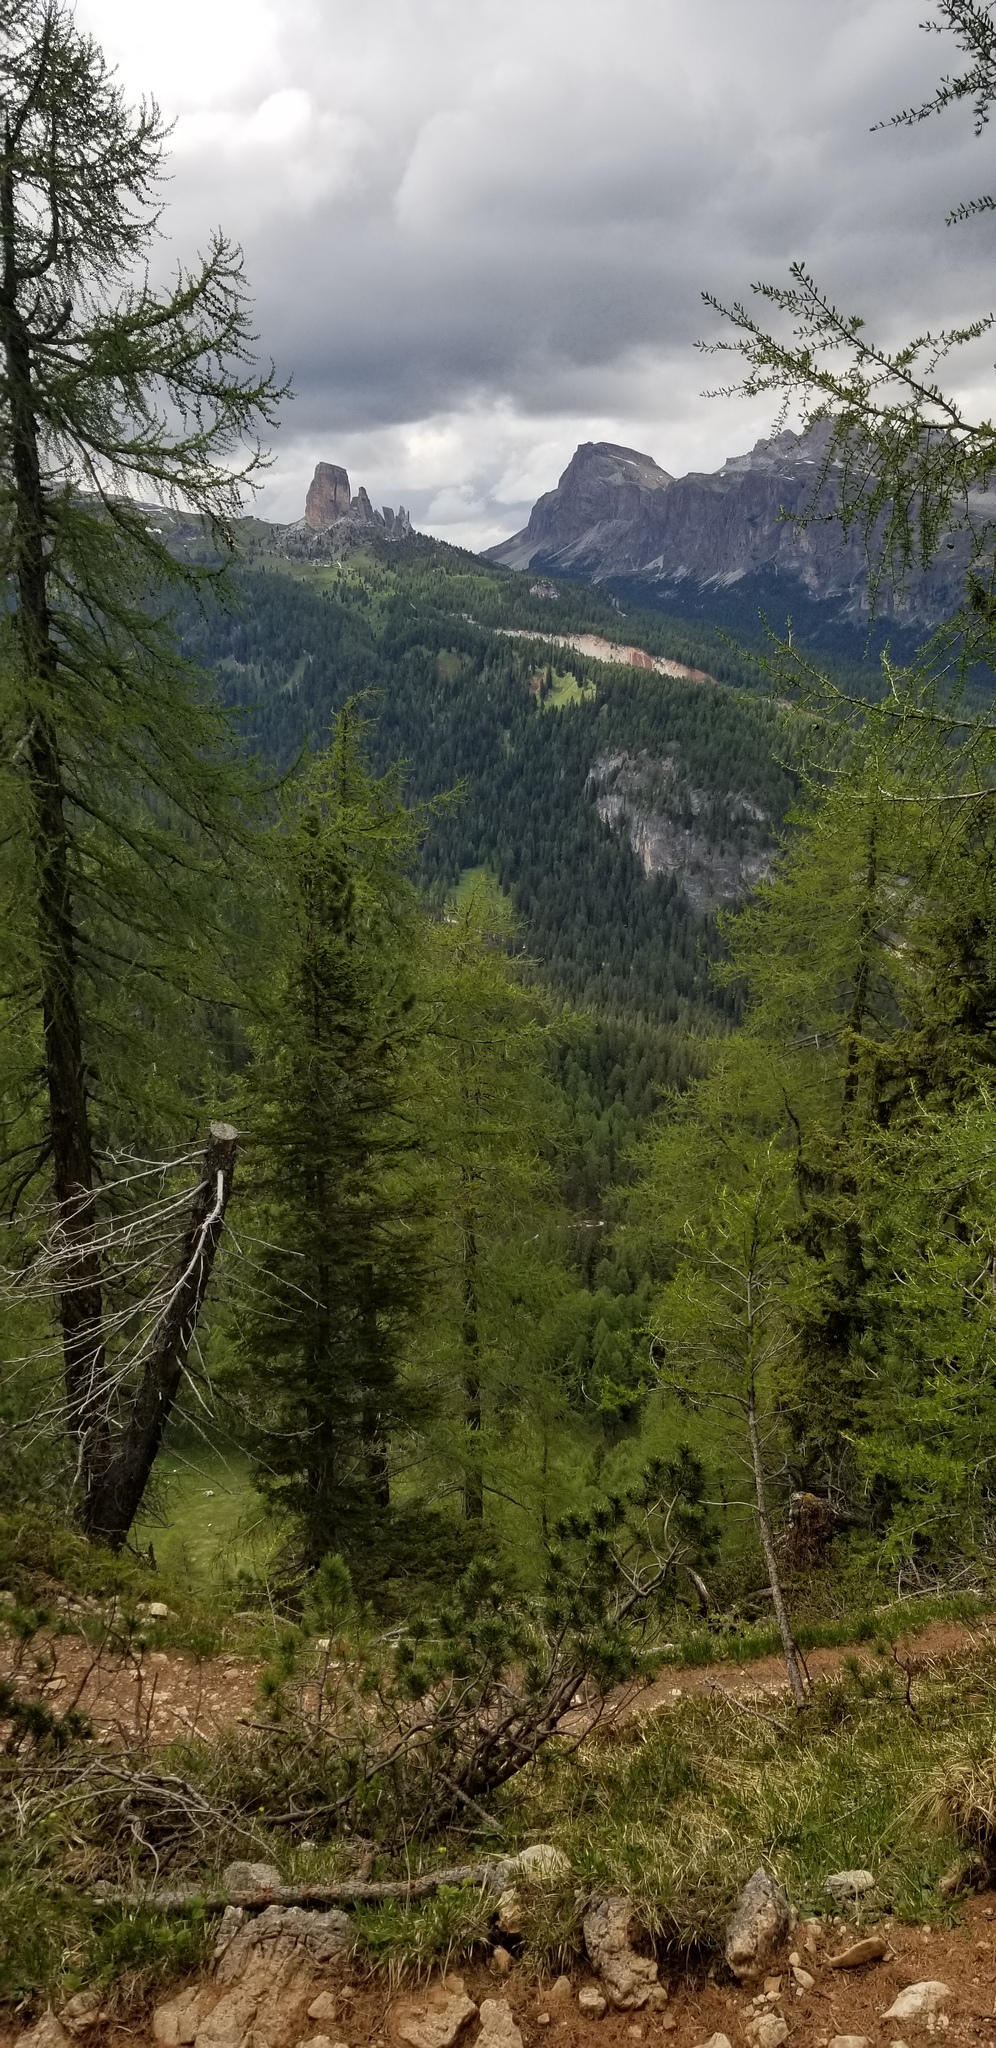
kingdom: Plantae
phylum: Tracheophyta
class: Pinopsida
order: Pinales
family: Pinaceae
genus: Larix
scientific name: Larix decidua
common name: European larch
